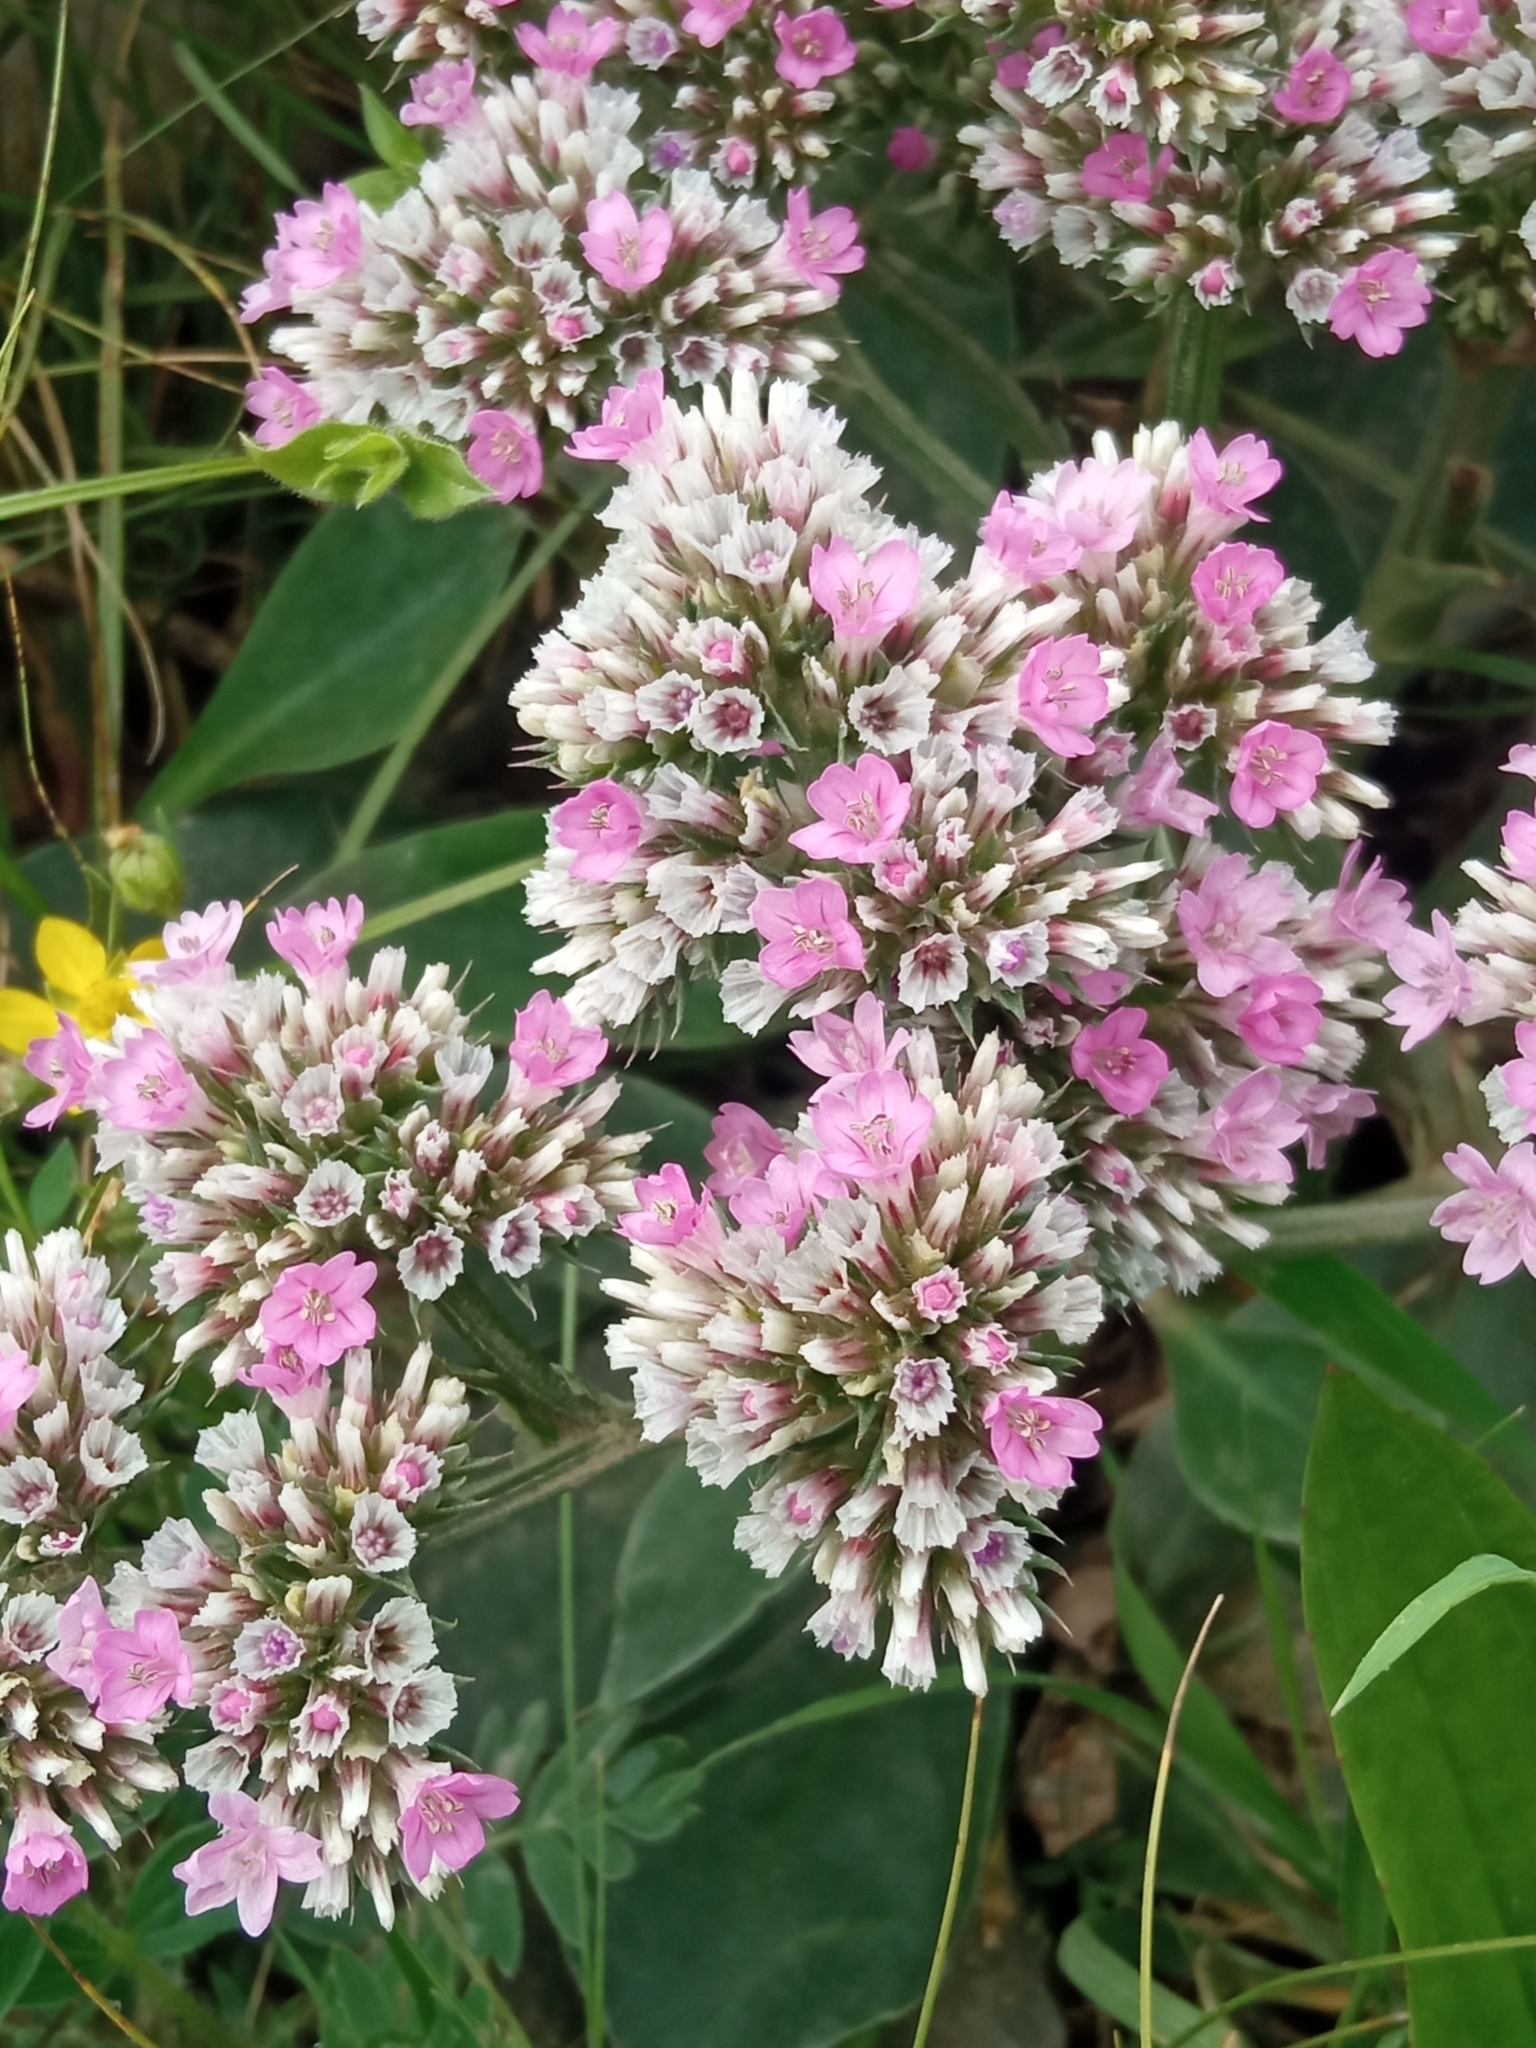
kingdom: Plantae
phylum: Tracheophyta
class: Magnoliopsida
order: Caryophyllales
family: Plumbaginaceae
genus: Goniolimon
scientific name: Goniolimon speciosum
